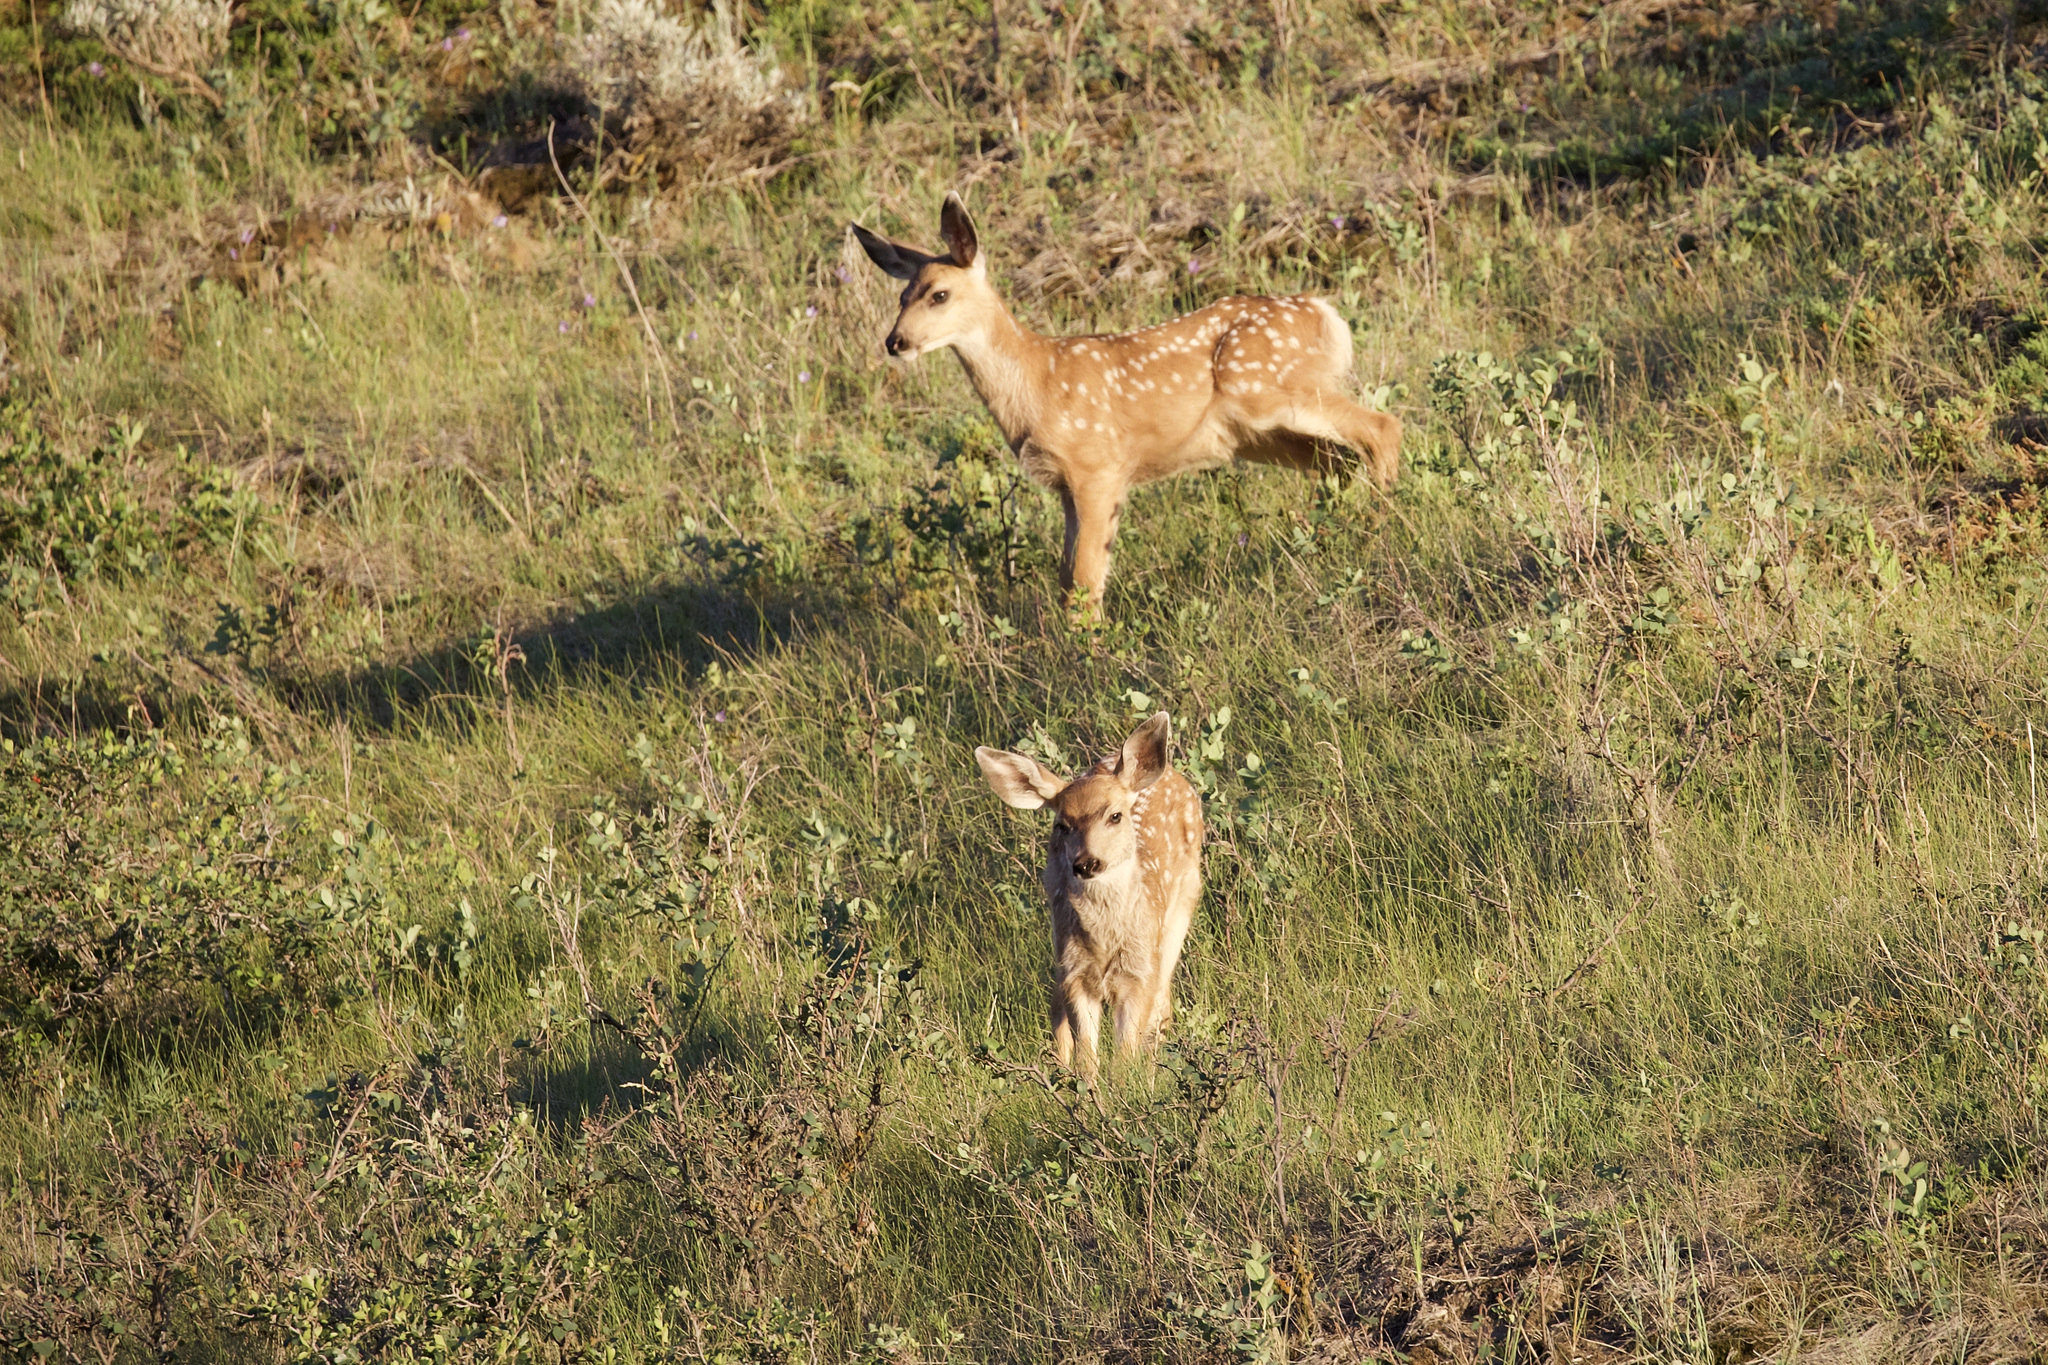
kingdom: Animalia
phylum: Chordata
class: Mammalia
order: Artiodactyla
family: Cervidae
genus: Odocoileus
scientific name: Odocoileus hemionus
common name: Mule deer
